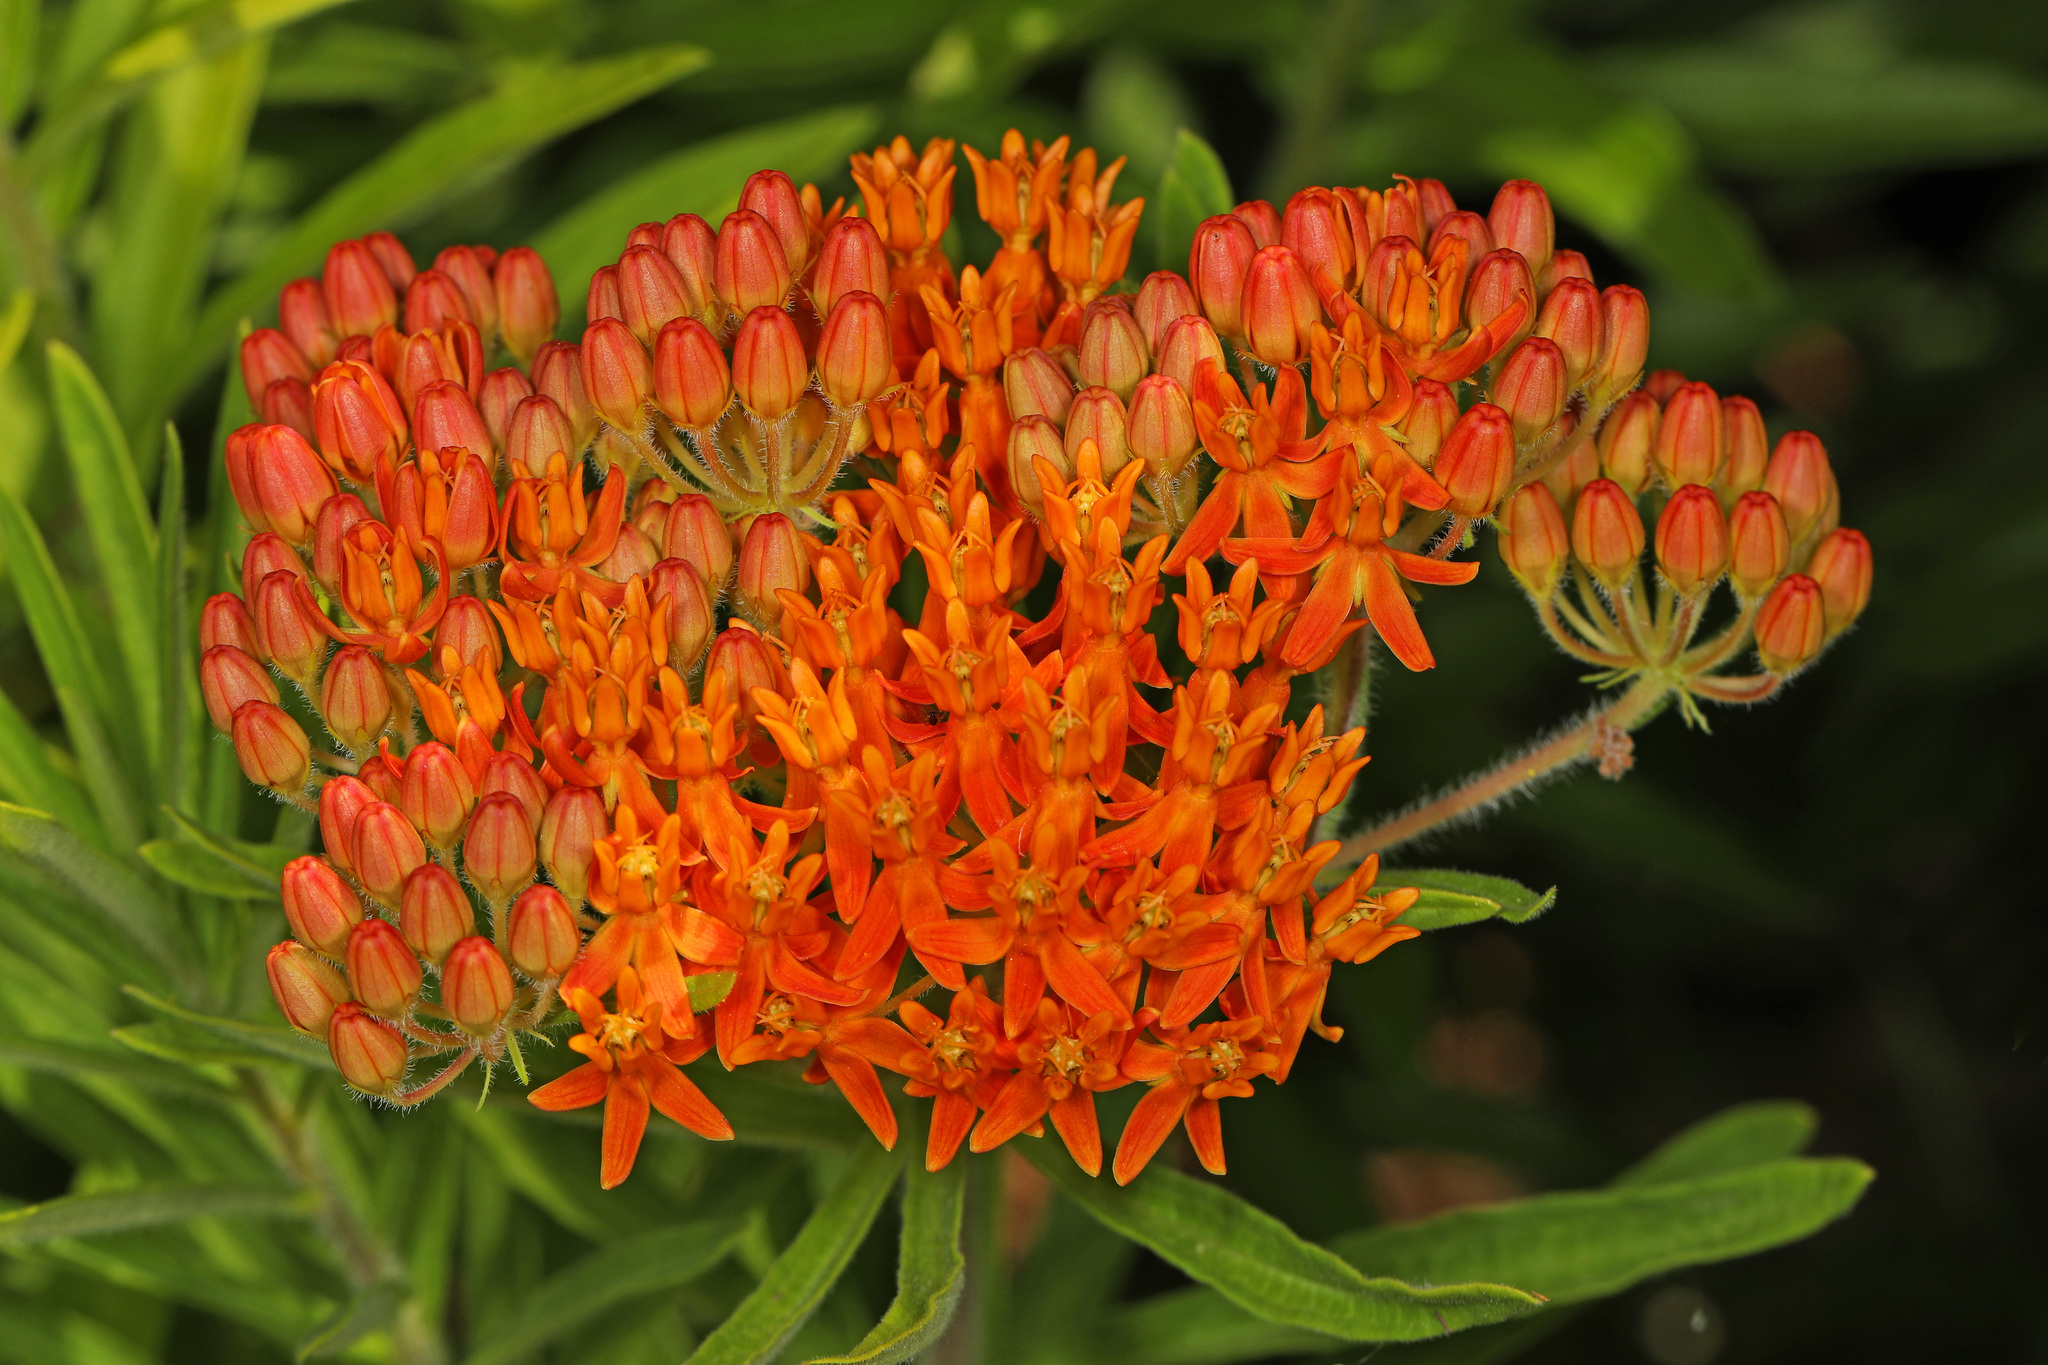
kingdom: Plantae
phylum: Tracheophyta
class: Magnoliopsida
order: Gentianales
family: Apocynaceae
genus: Asclepias
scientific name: Asclepias tuberosa
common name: Butterfly milkweed
